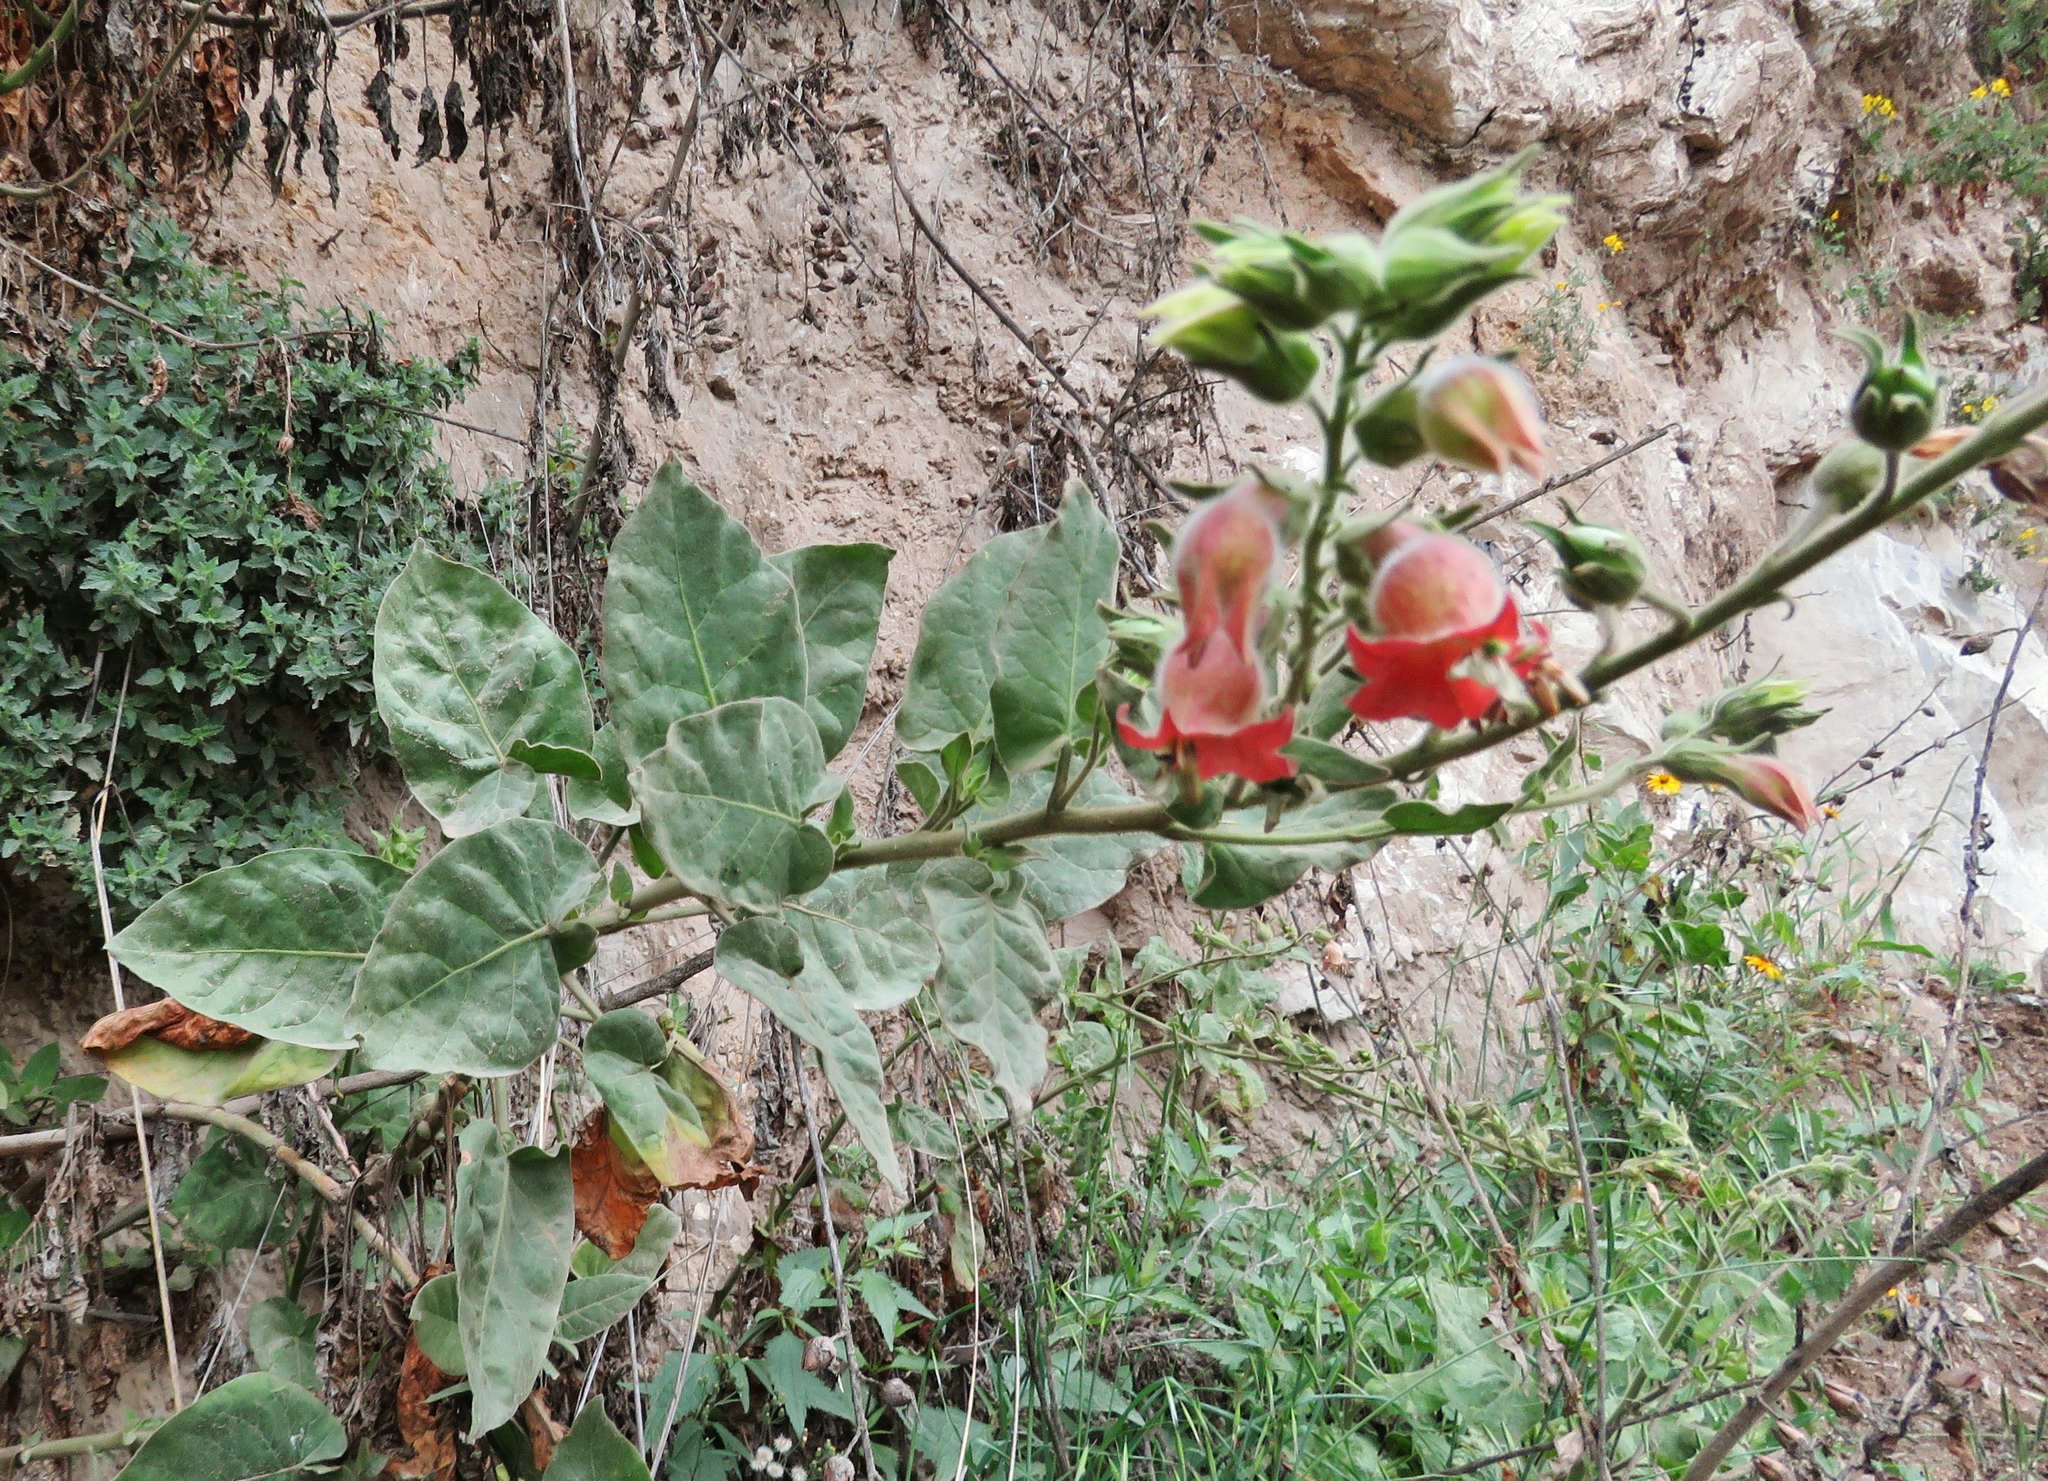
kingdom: Plantae
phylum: Tracheophyta
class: Magnoliopsida
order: Solanales
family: Solanaceae
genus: Nicotiana
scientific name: Nicotiana glutinosa
